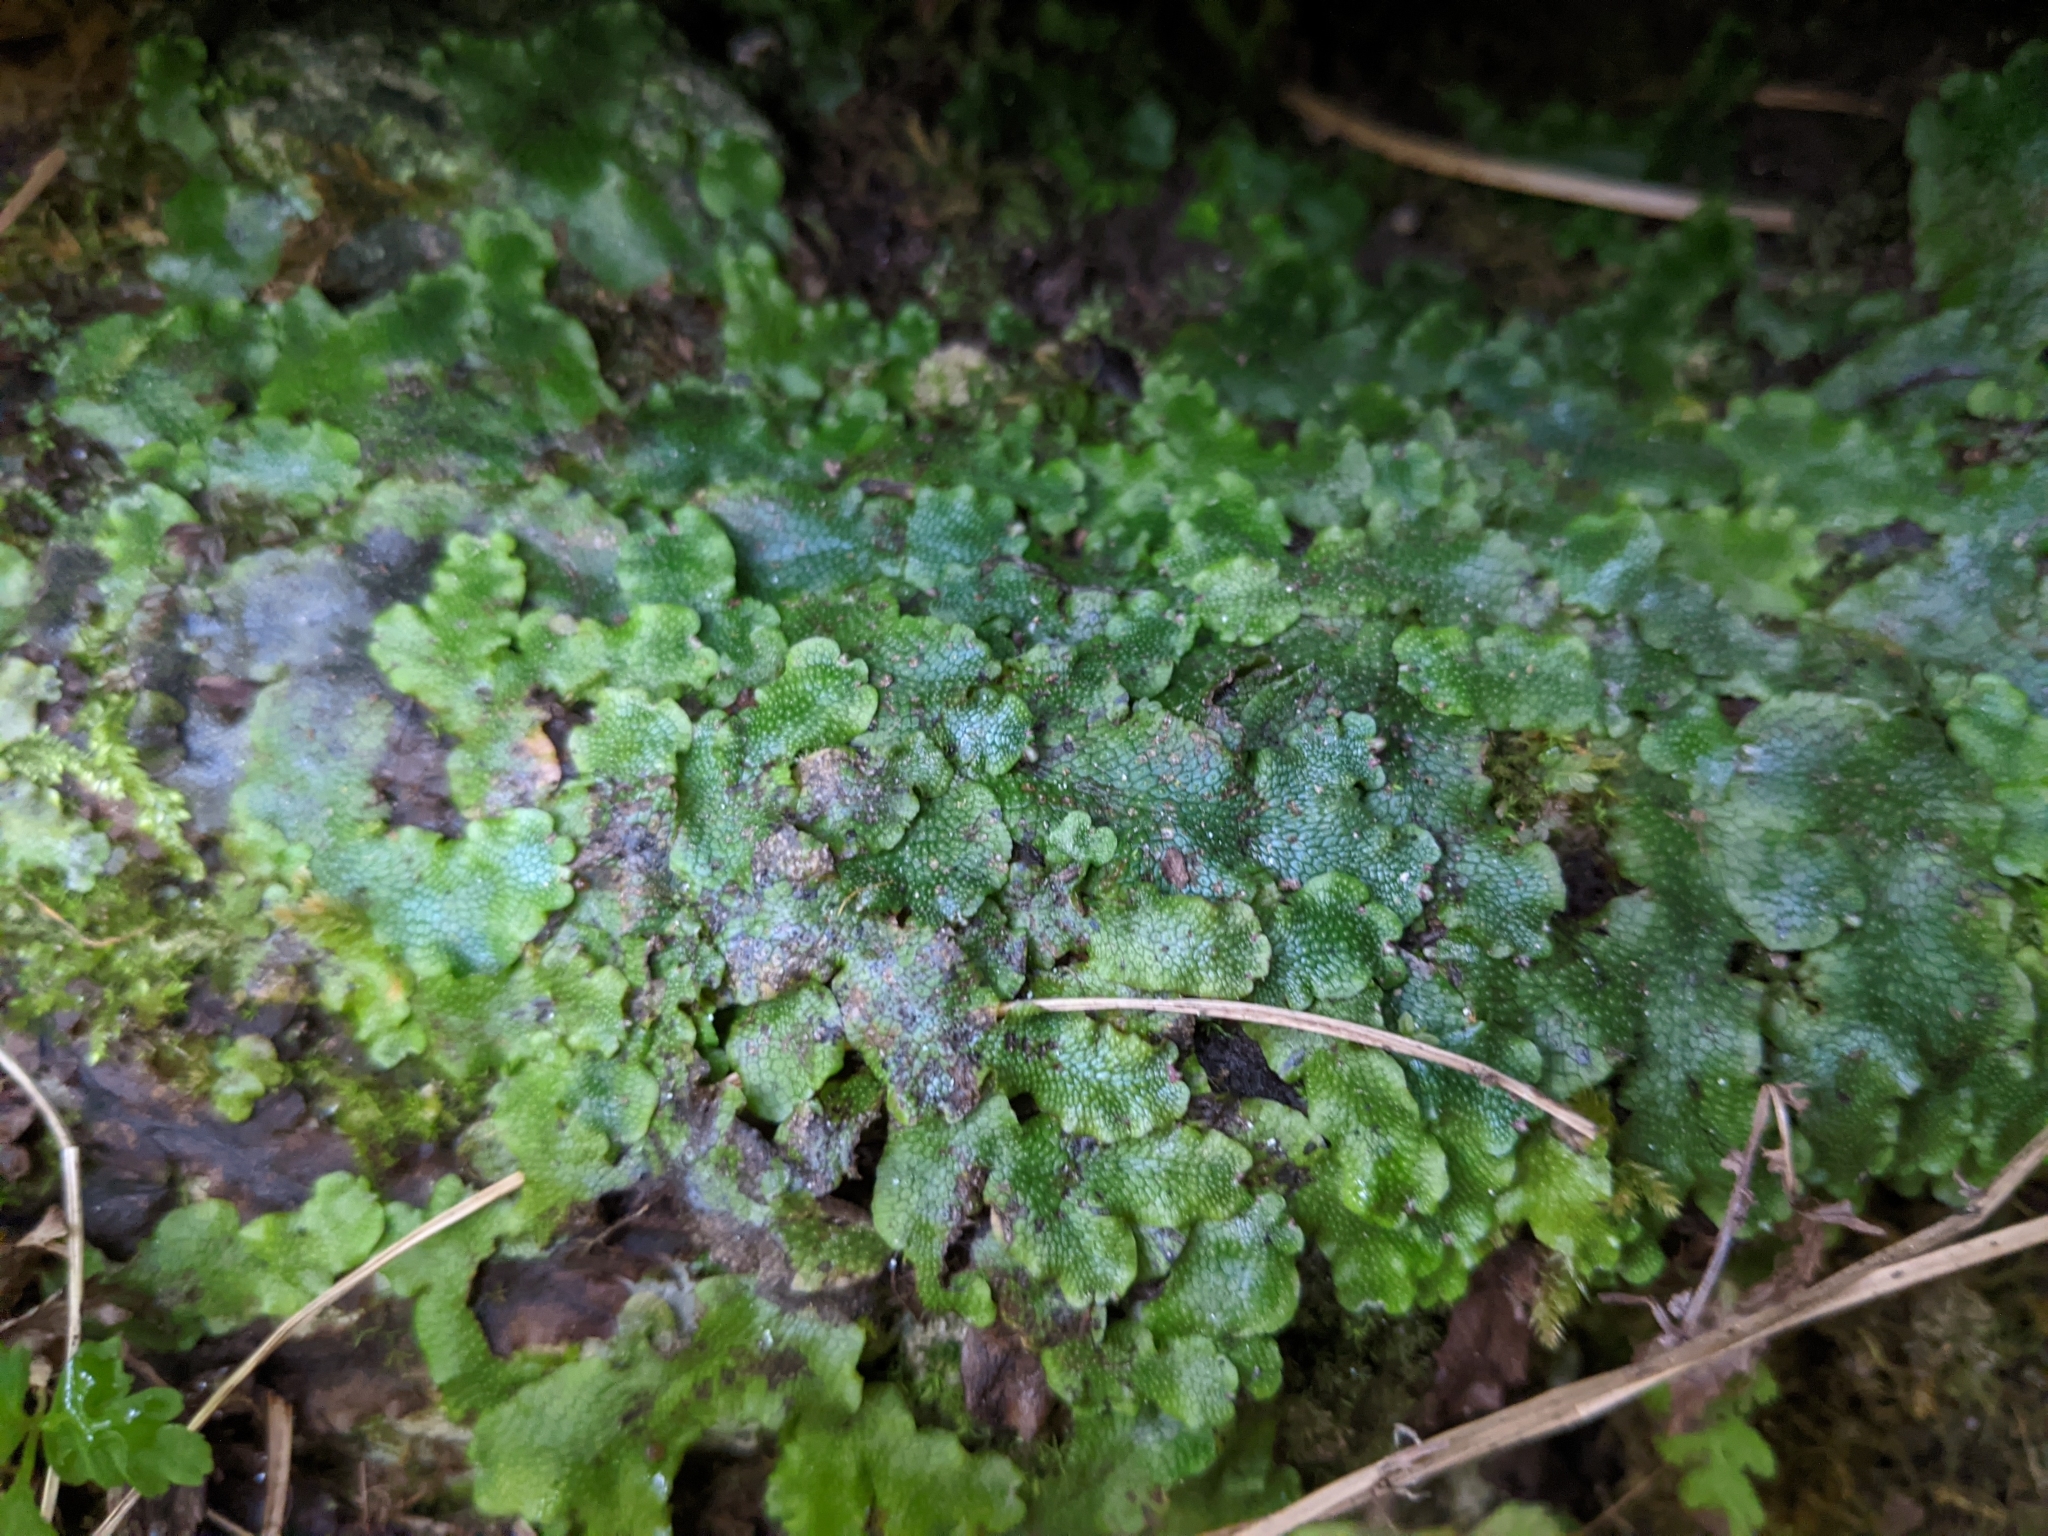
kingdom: Plantae
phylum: Marchantiophyta
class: Marchantiopsida
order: Marchantiales
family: Conocephalaceae
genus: Conocephalum
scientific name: Conocephalum salebrosum
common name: Cat-tongue liverwort
